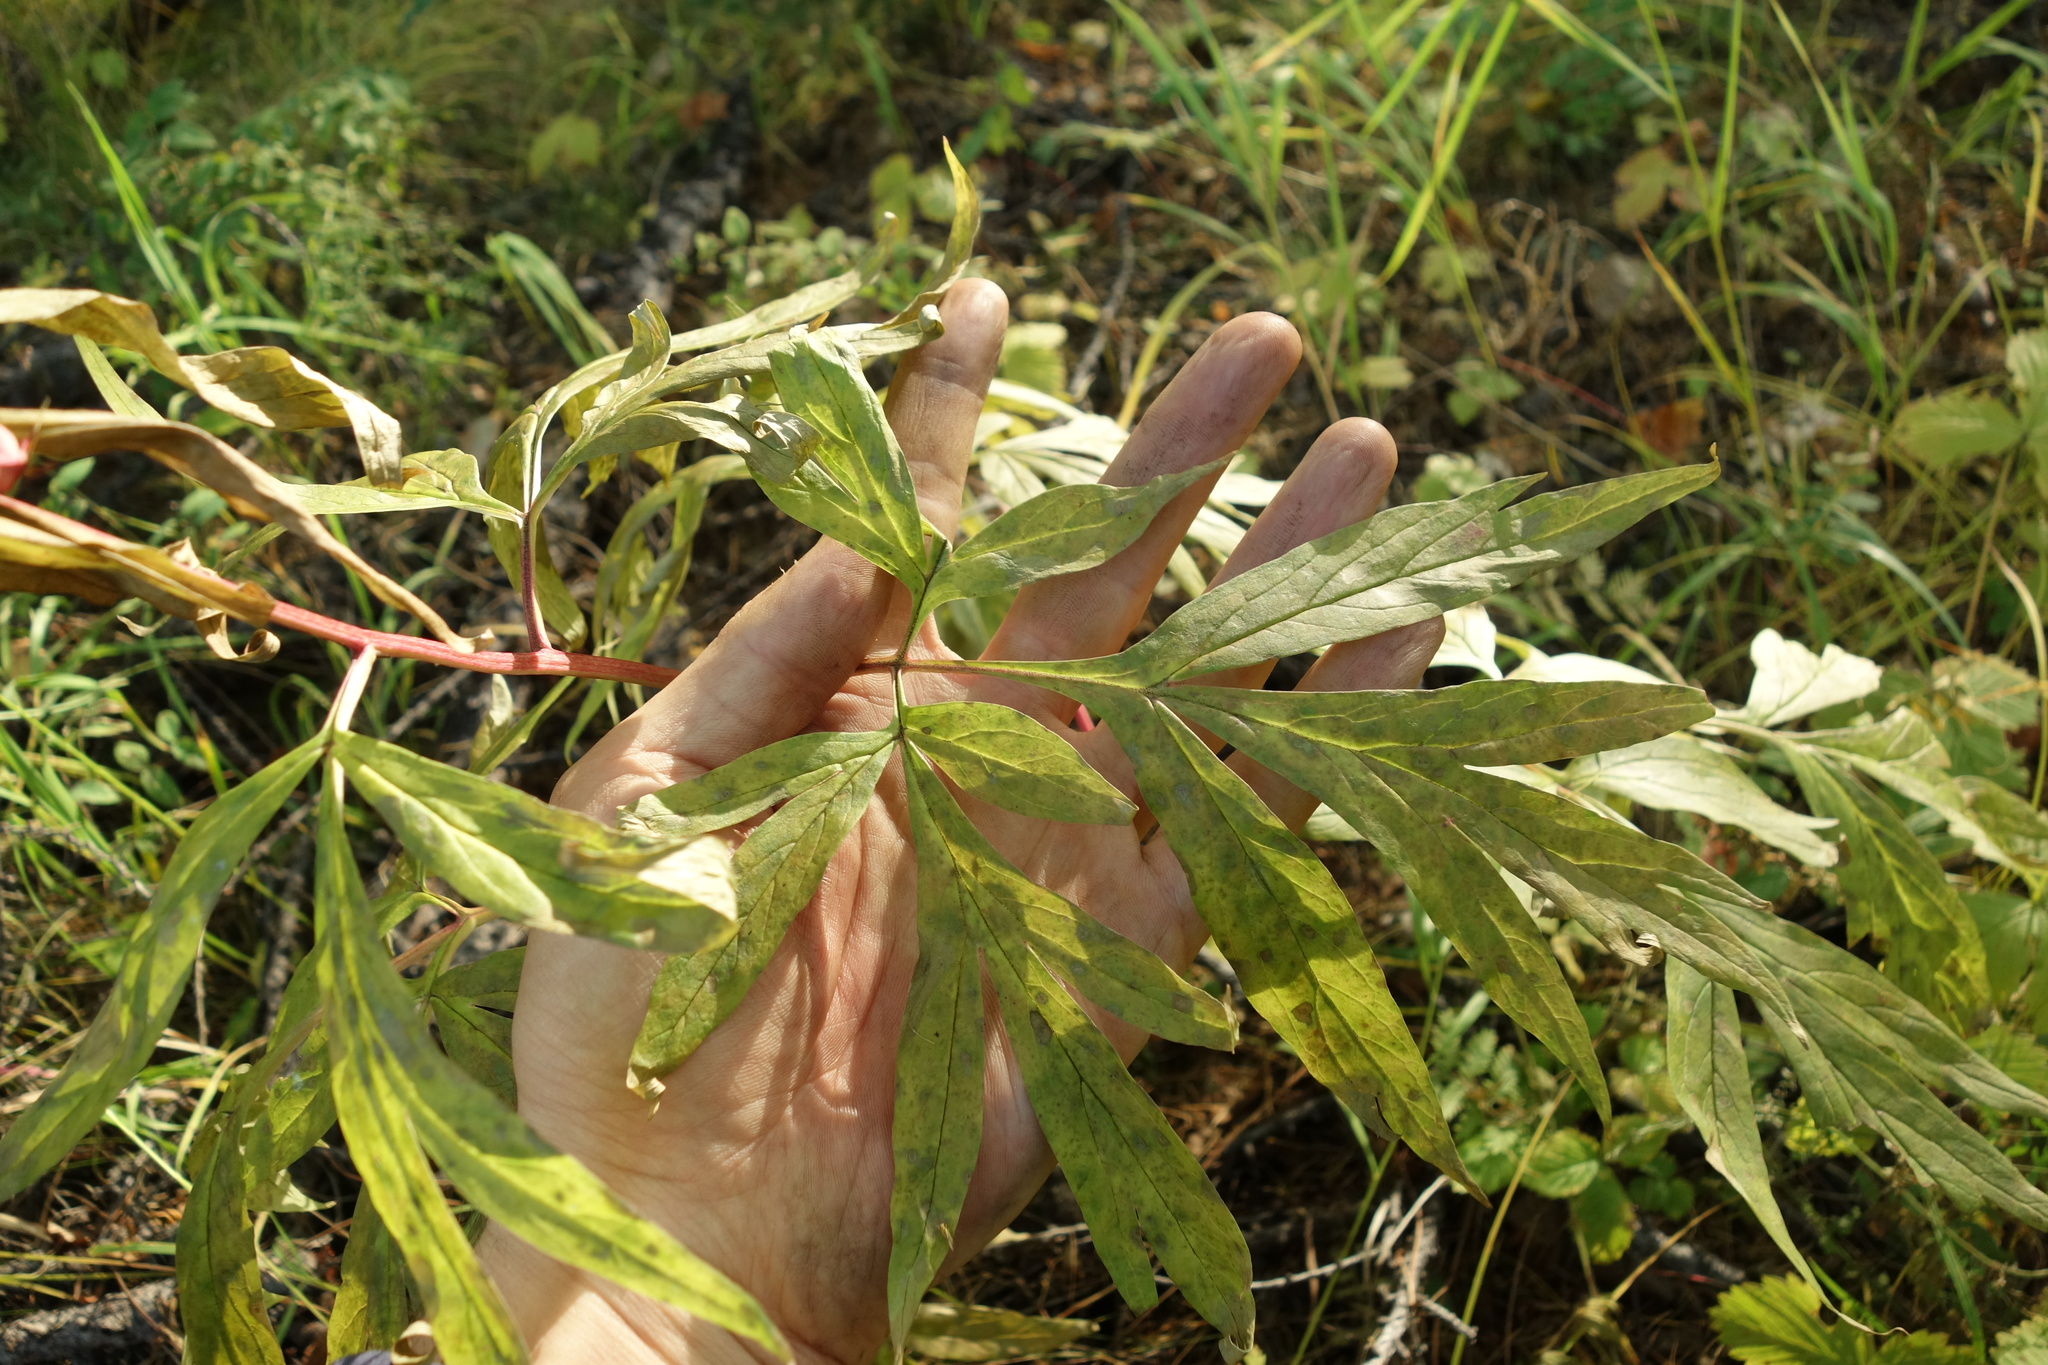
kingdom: Plantae
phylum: Tracheophyta
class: Magnoliopsida
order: Saxifragales
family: Paeoniaceae
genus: Paeonia
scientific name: Paeonia anomala
